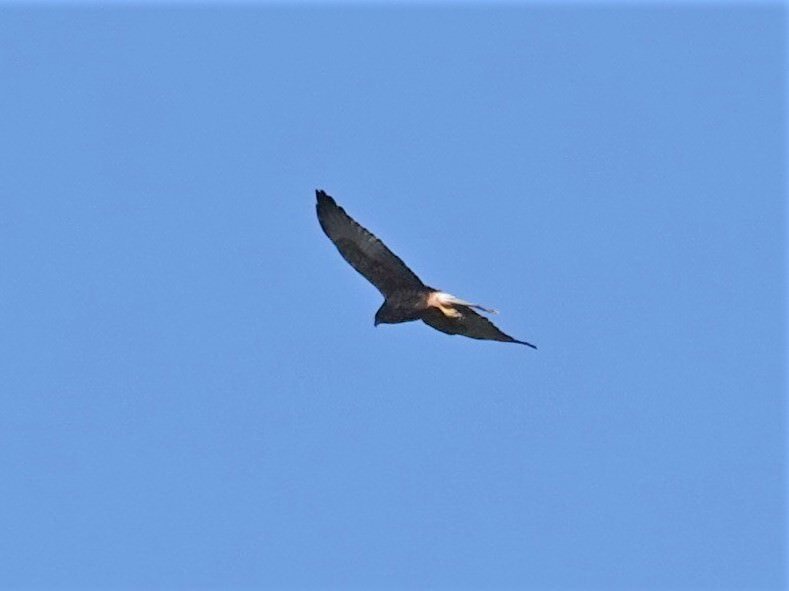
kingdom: Animalia
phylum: Chordata
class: Aves
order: Accipitriformes
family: Accipitridae
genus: Circus
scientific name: Circus approximans
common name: Swamp harrier
